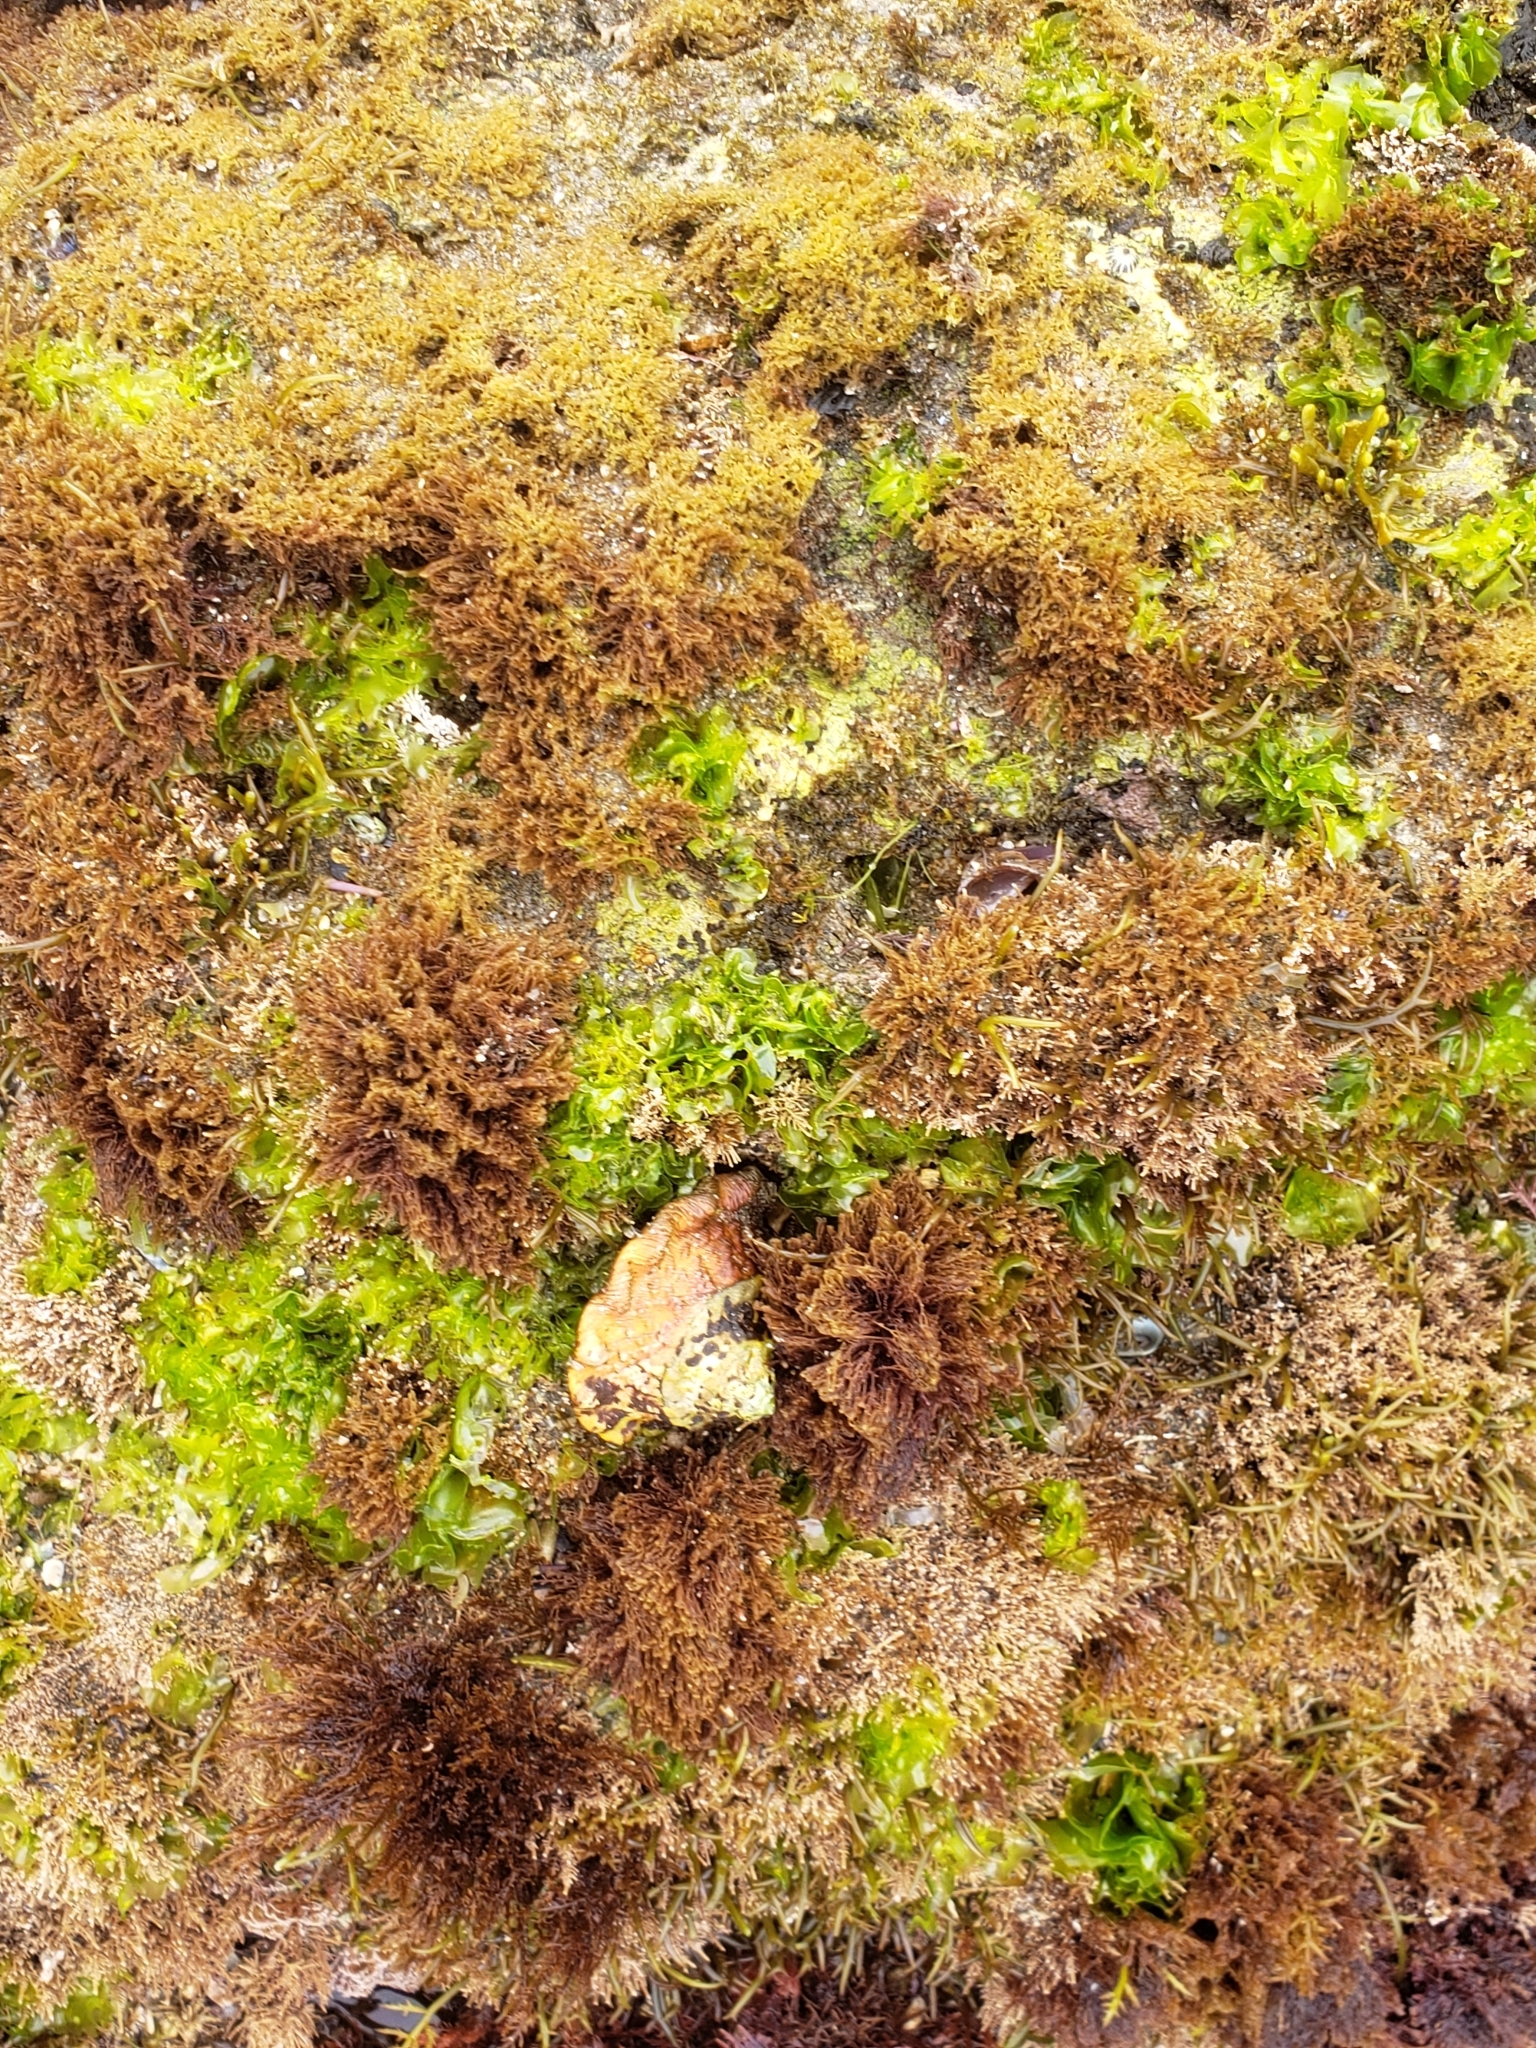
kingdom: Animalia
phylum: Mollusca
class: Gastropoda
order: Trochida
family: Turbinidae
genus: Megastraea
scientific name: Megastraea undosa
